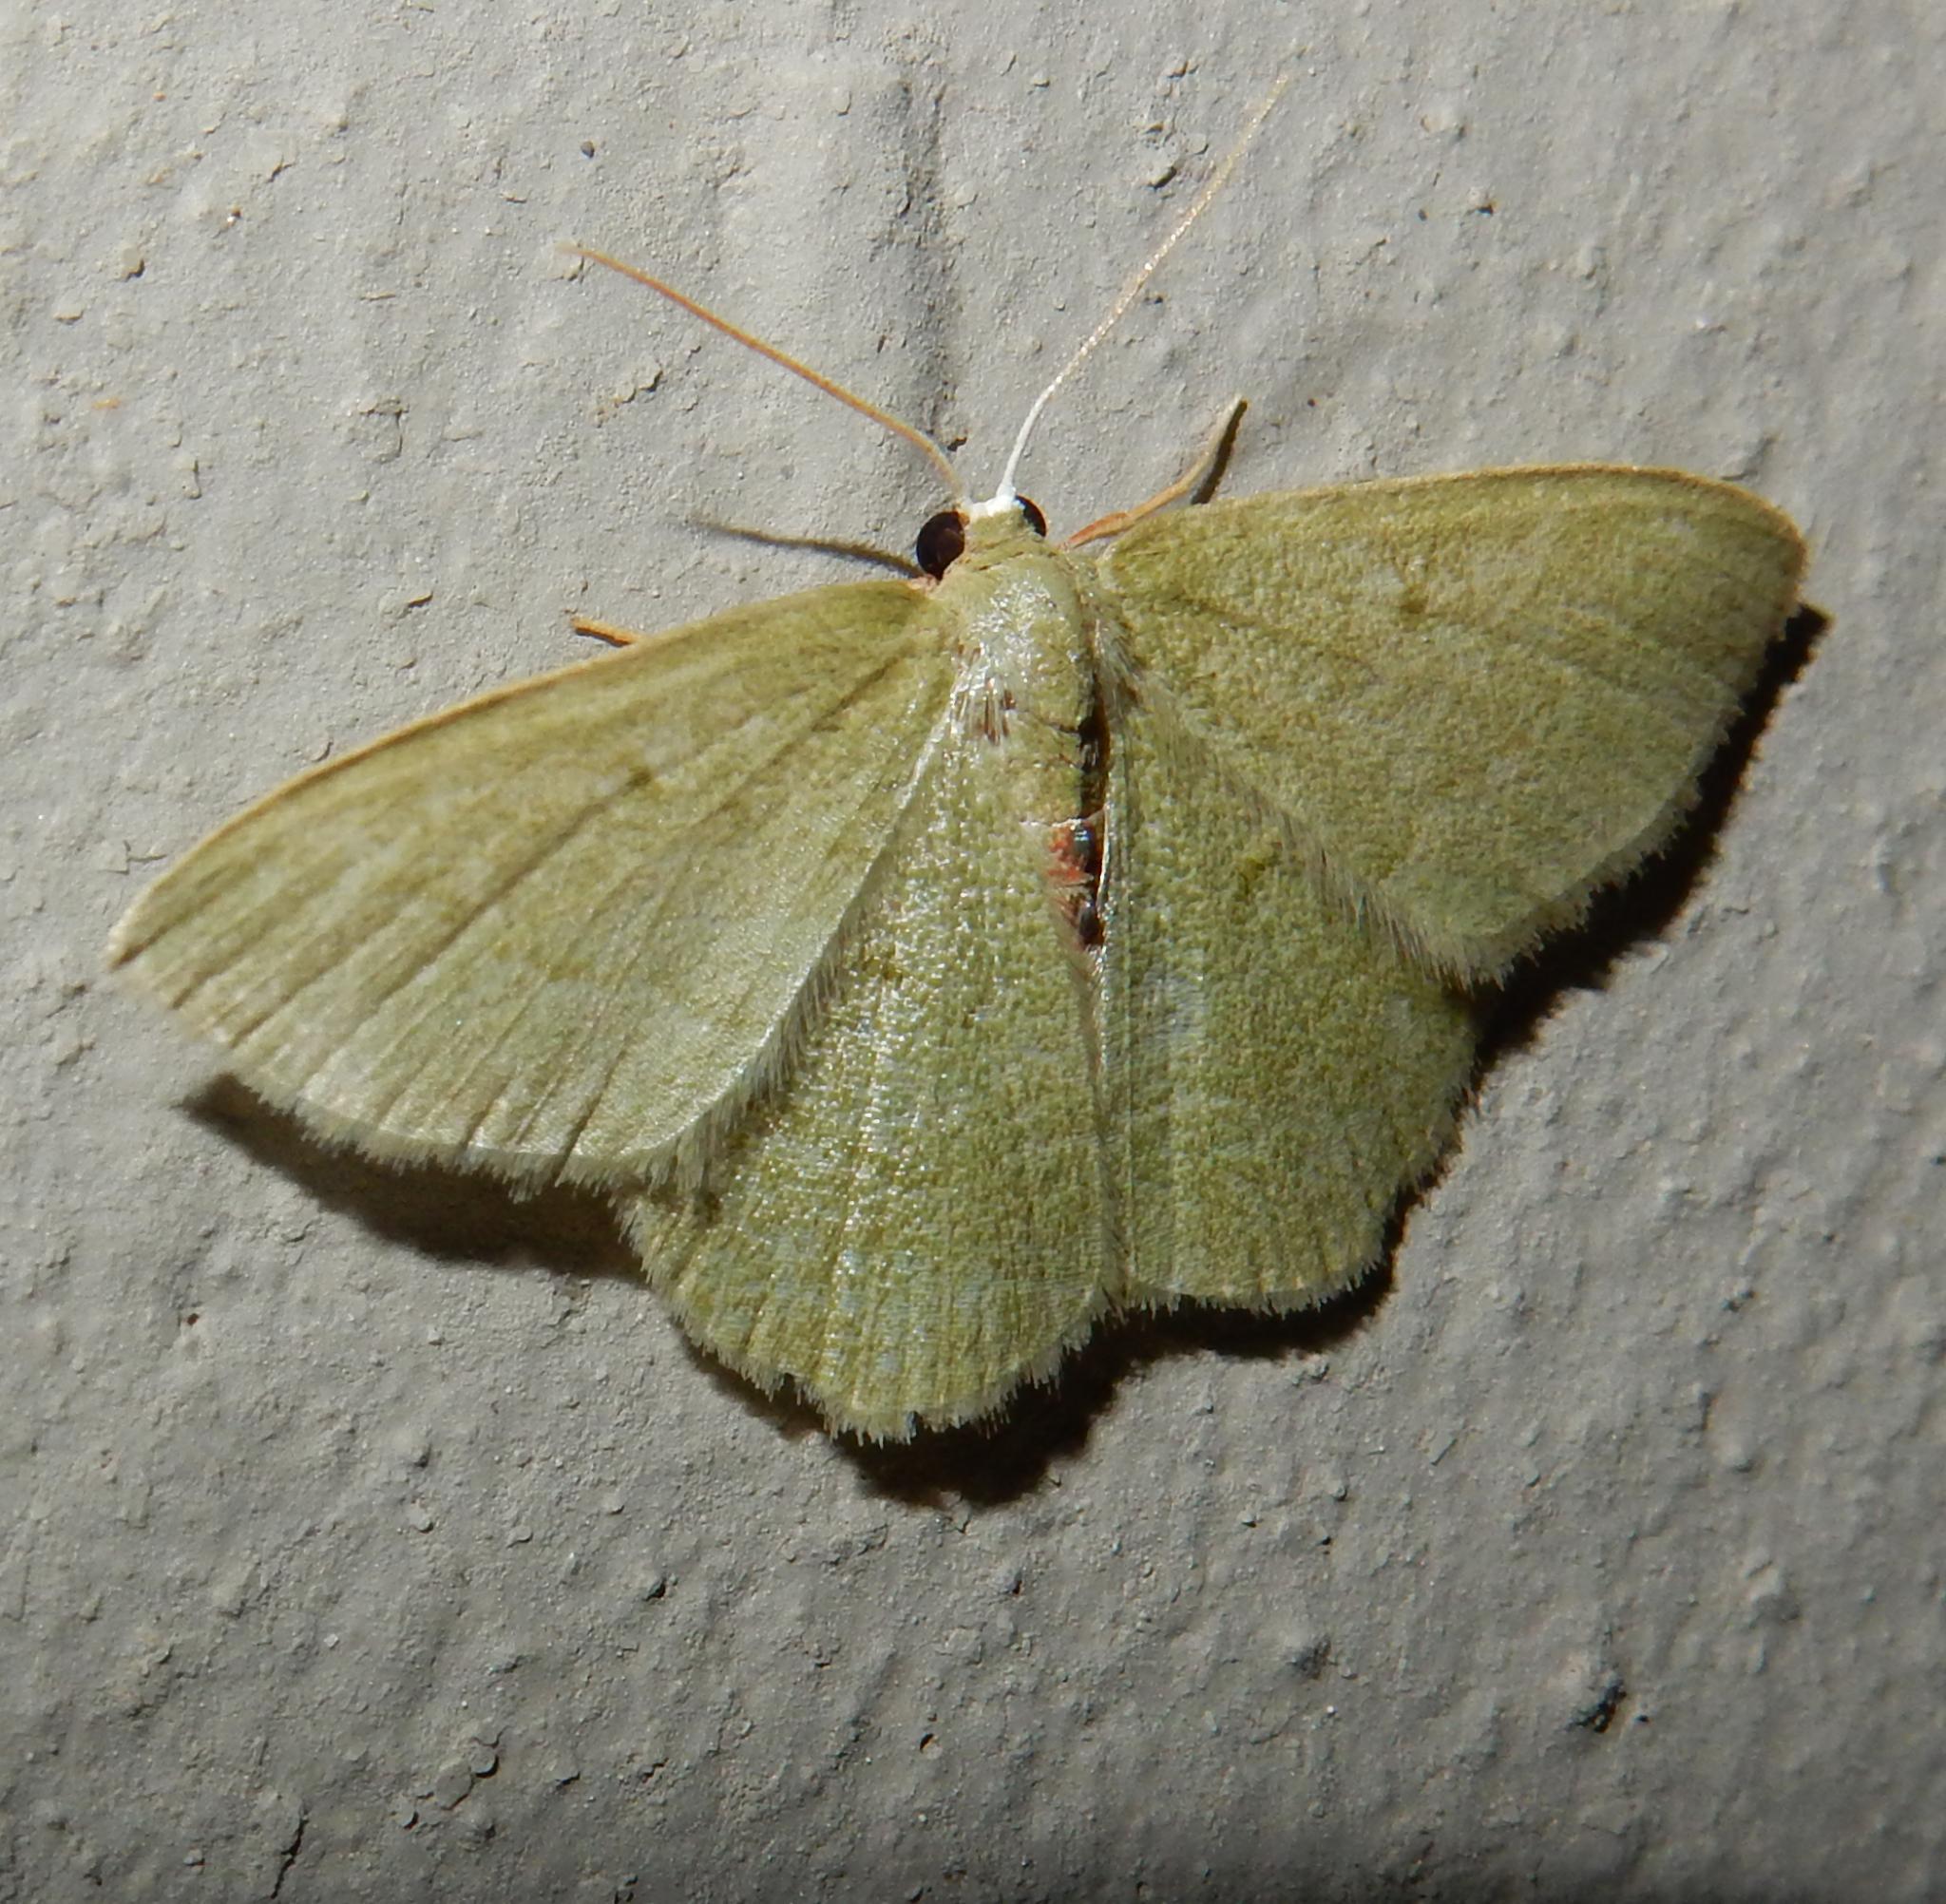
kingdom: Animalia
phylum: Arthropoda
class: Insecta
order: Lepidoptera
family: Geometridae
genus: Chlorissa
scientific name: Chlorissa attenuata
